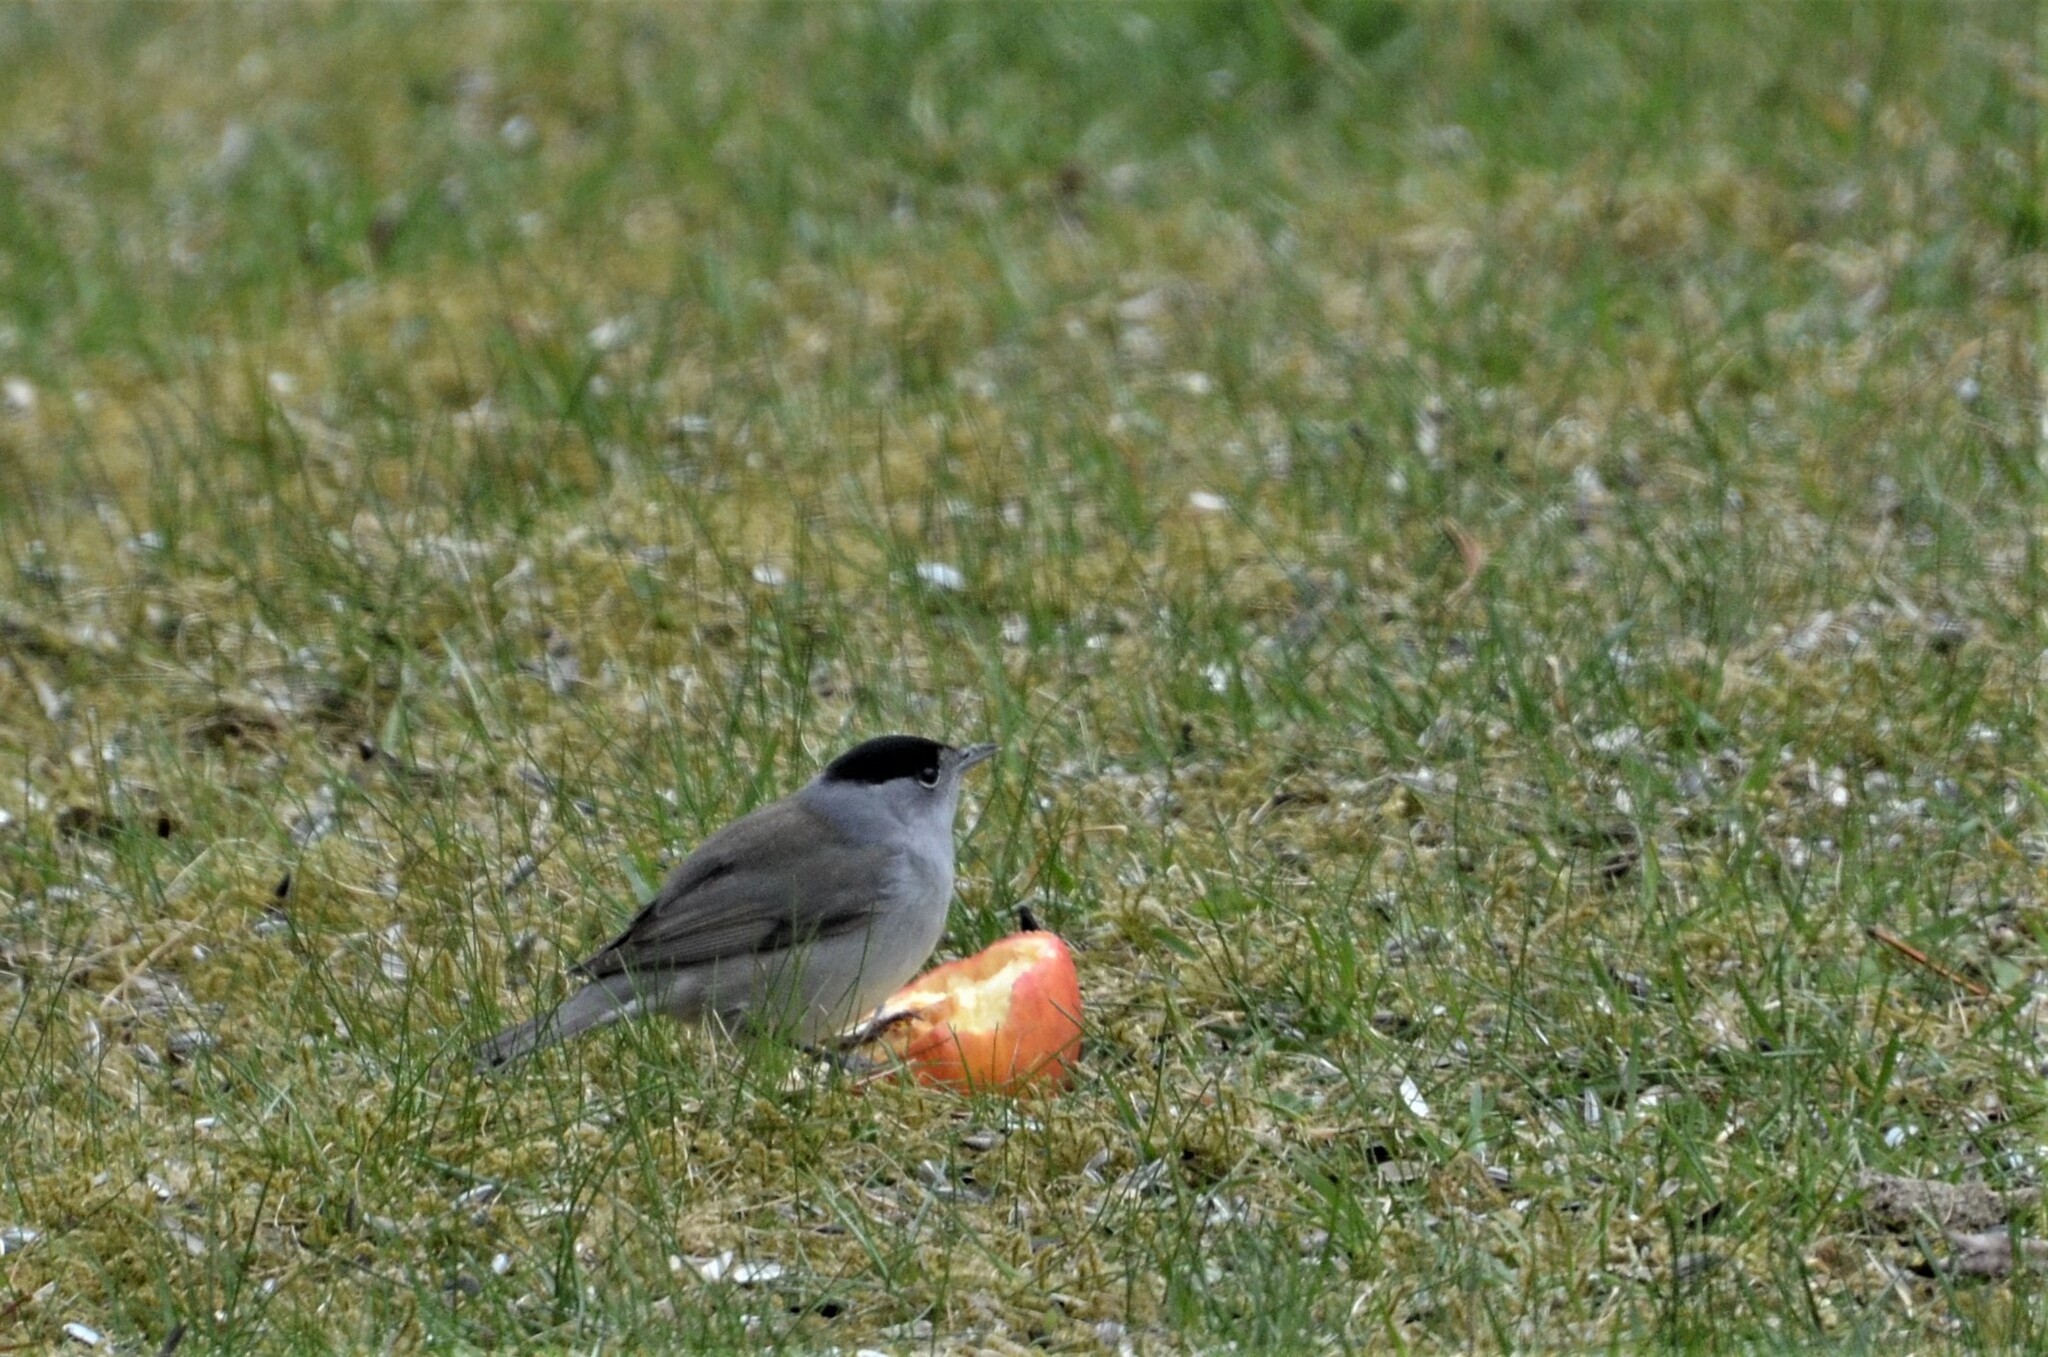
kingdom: Animalia
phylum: Chordata
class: Aves
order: Passeriformes
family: Sylviidae
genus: Sylvia
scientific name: Sylvia atricapilla
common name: Eurasian blackcap
